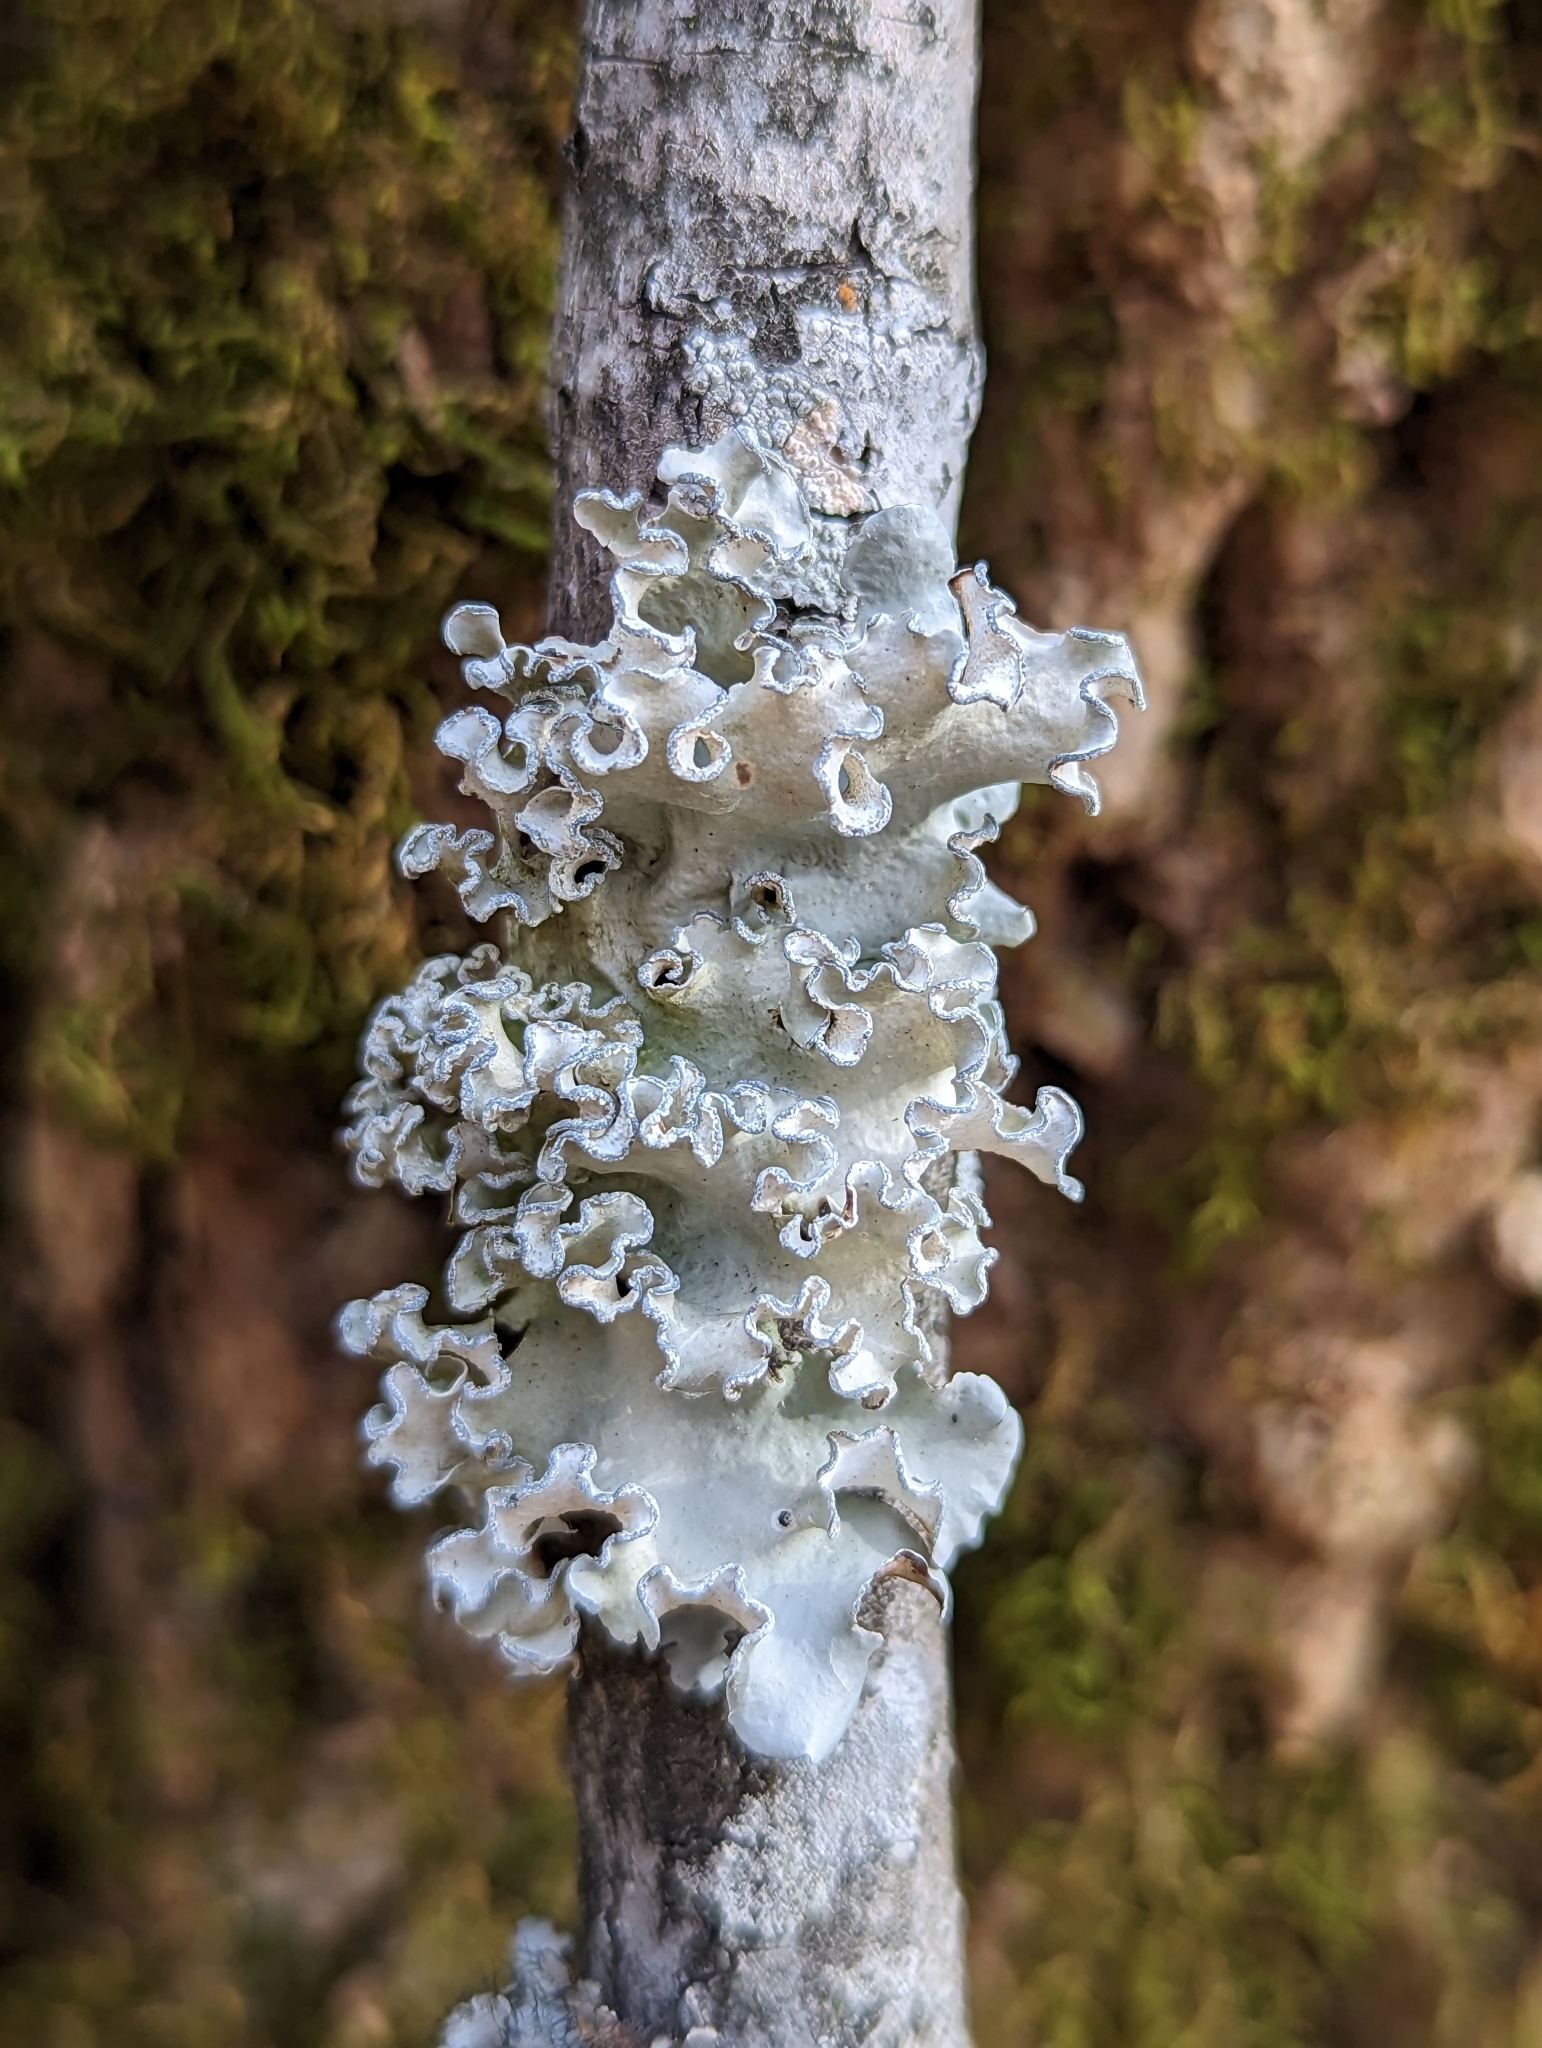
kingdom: Fungi
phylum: Ascomycota
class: Lecanoromycetes
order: Lecanorales
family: Parmeliaceae
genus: Parmotrema
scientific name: Parmotrema austrosinense
